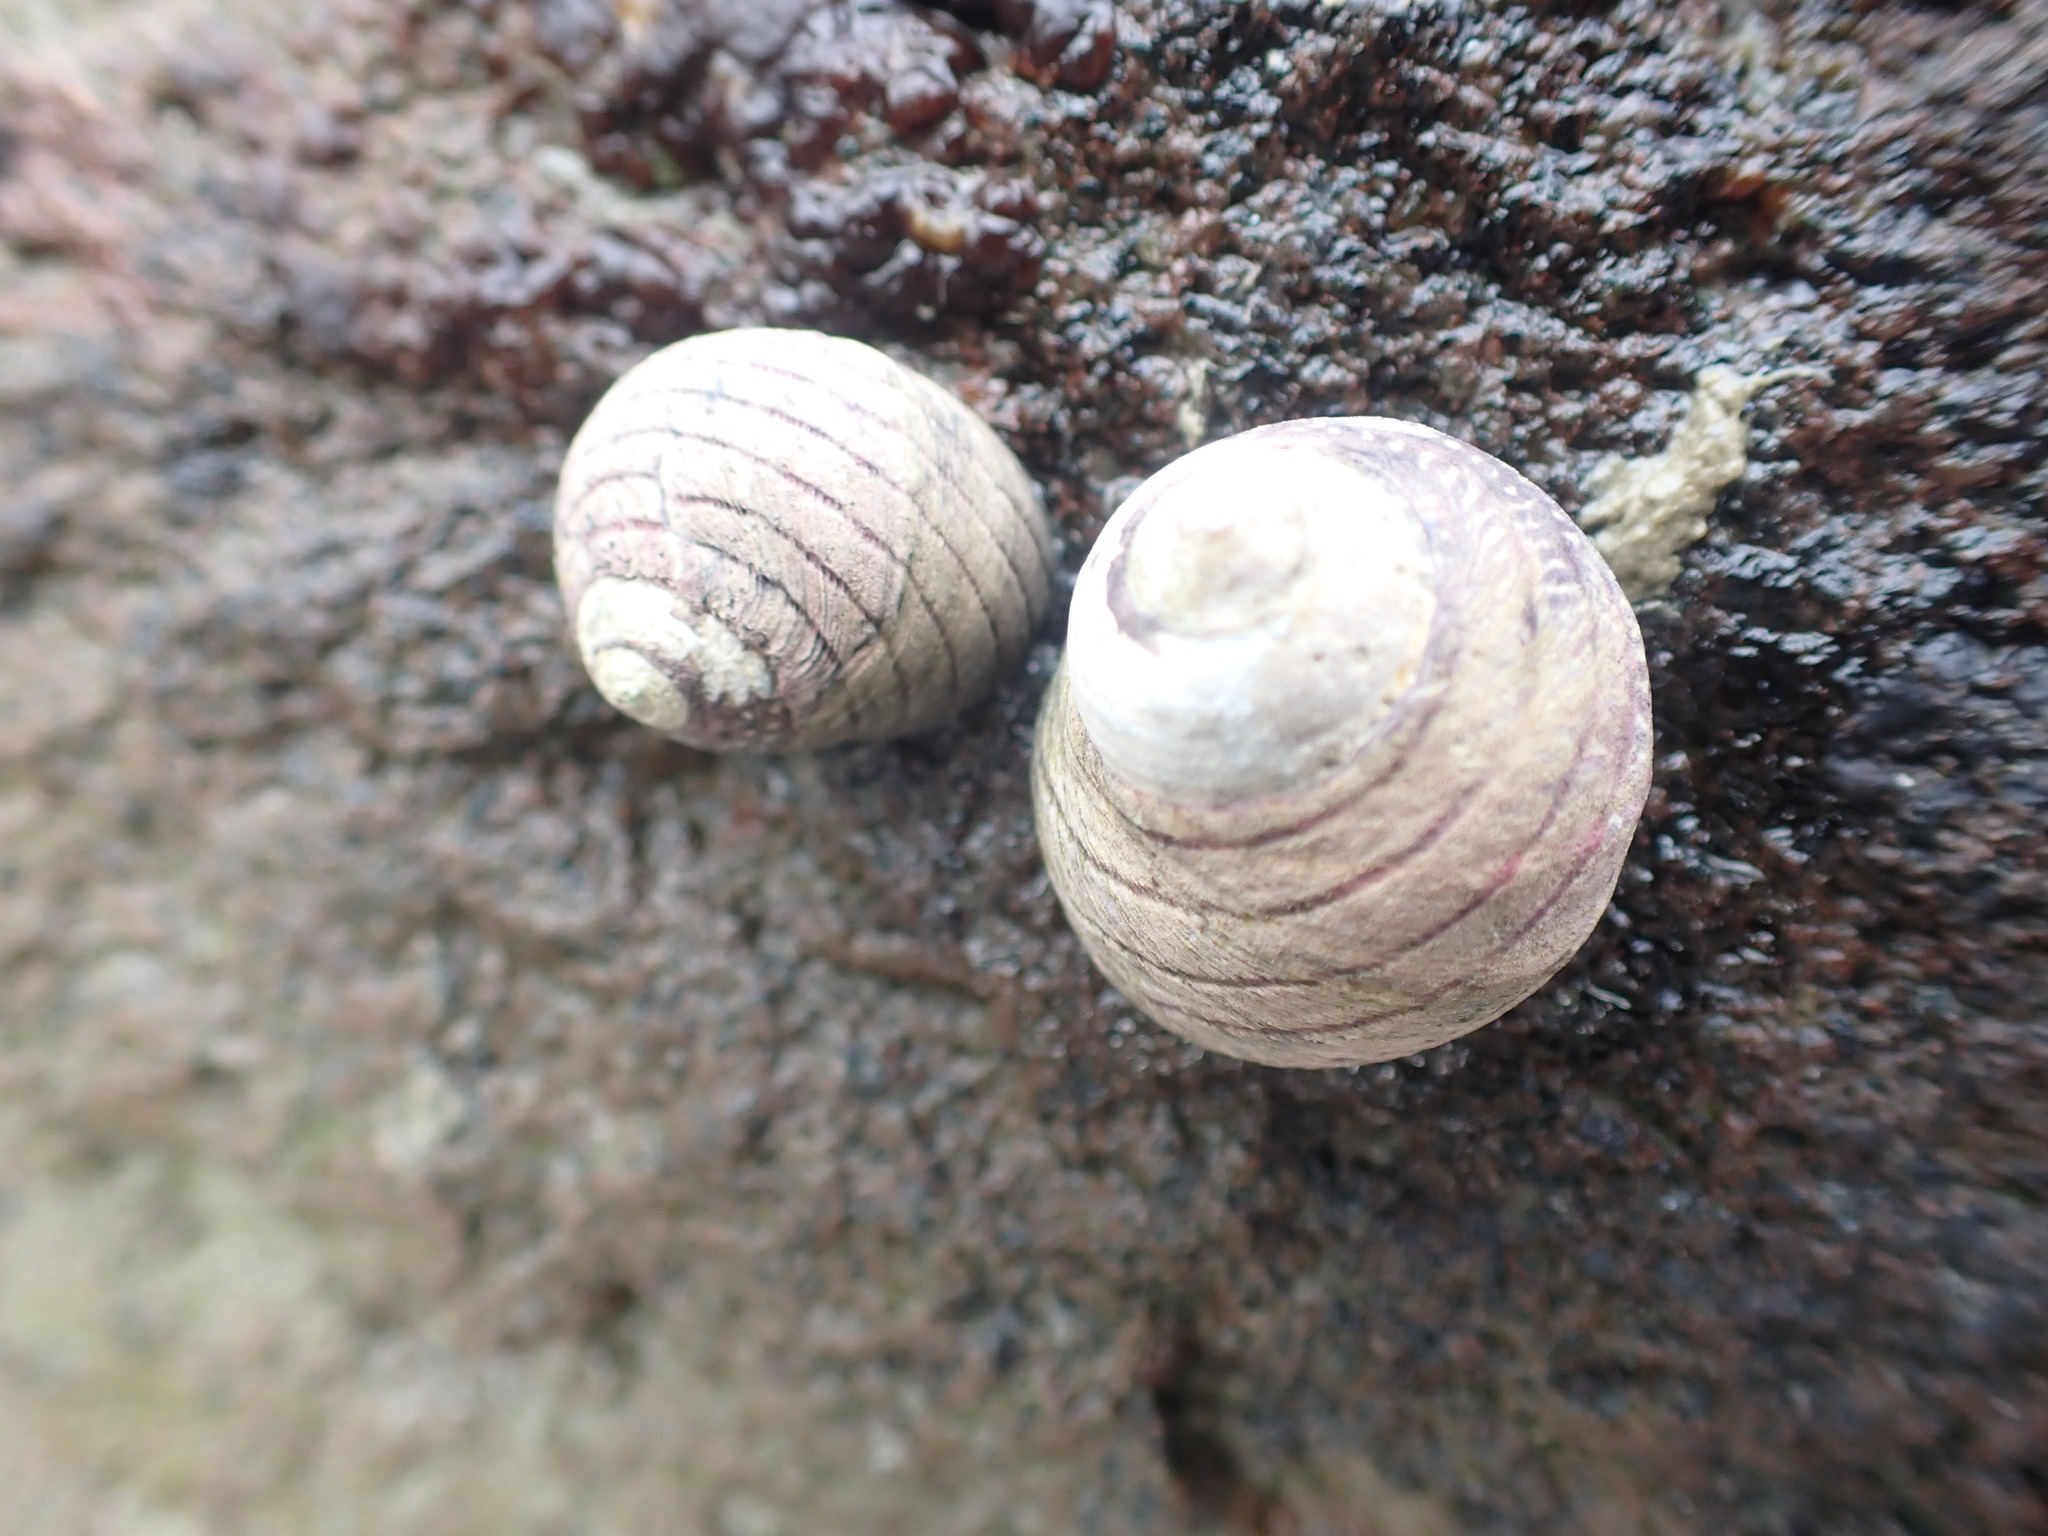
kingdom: Animalia
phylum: Mollusca
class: Gastropoda
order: Trochida
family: Trochidae
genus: Diloma
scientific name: Diloma aethiops
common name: Scorched monodont
